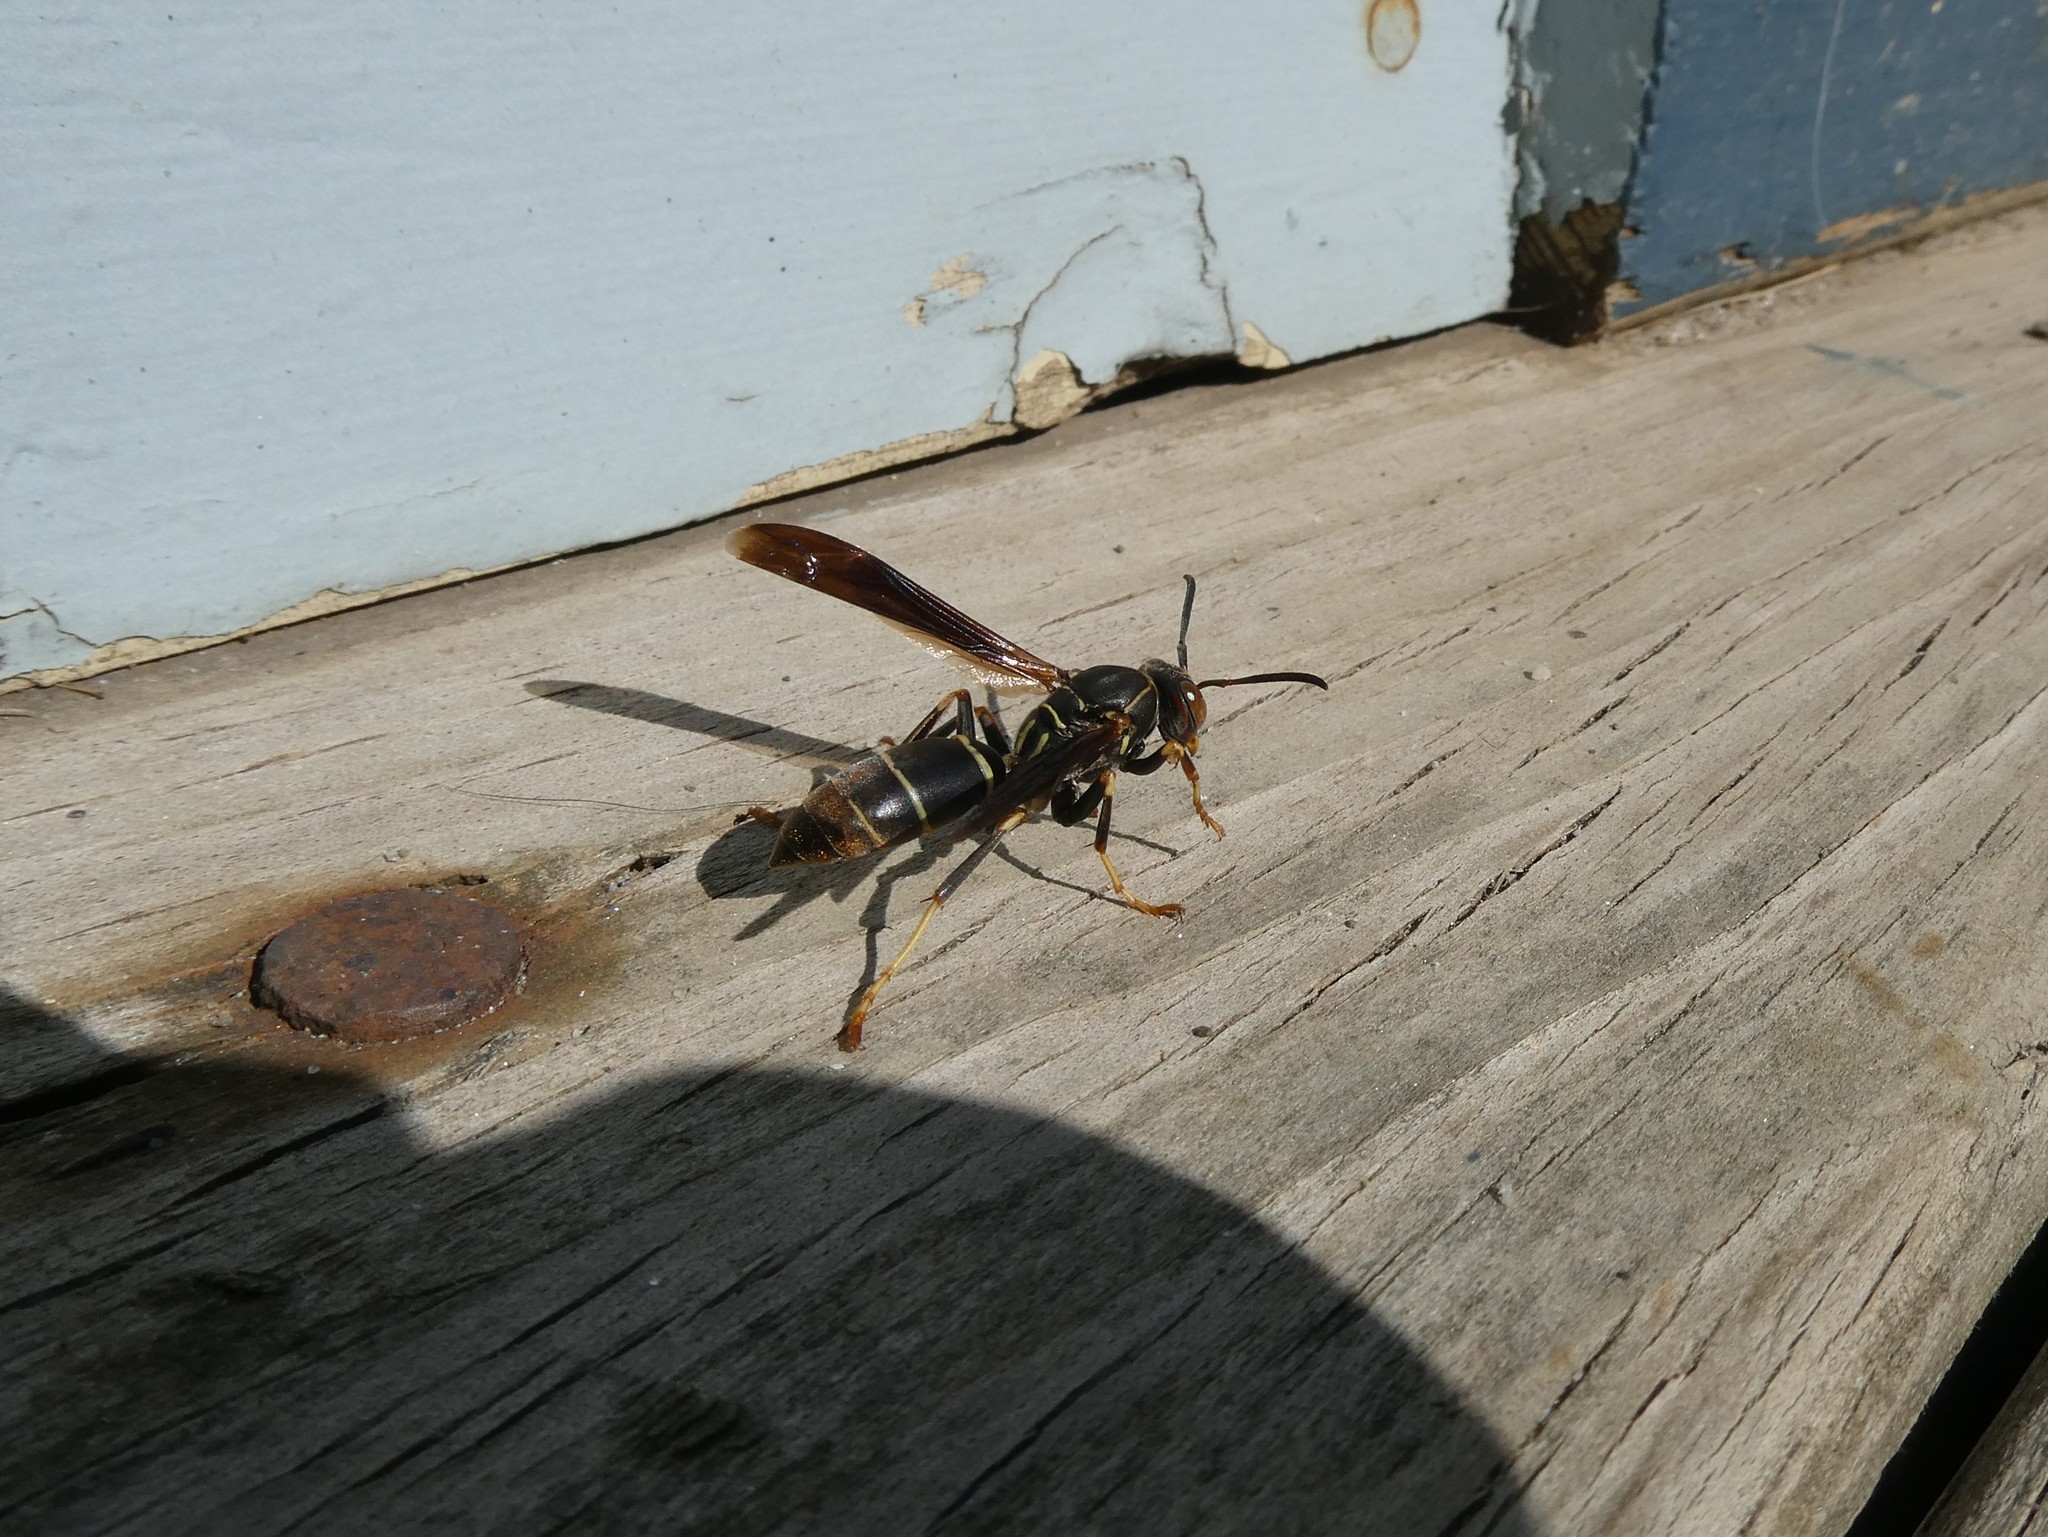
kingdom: Animalia
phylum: Arthropoda
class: Insecta
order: Hymenoptera
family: Eumenidae
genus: Polistes
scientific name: Polistes fuscatus
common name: Dark paper wasp
